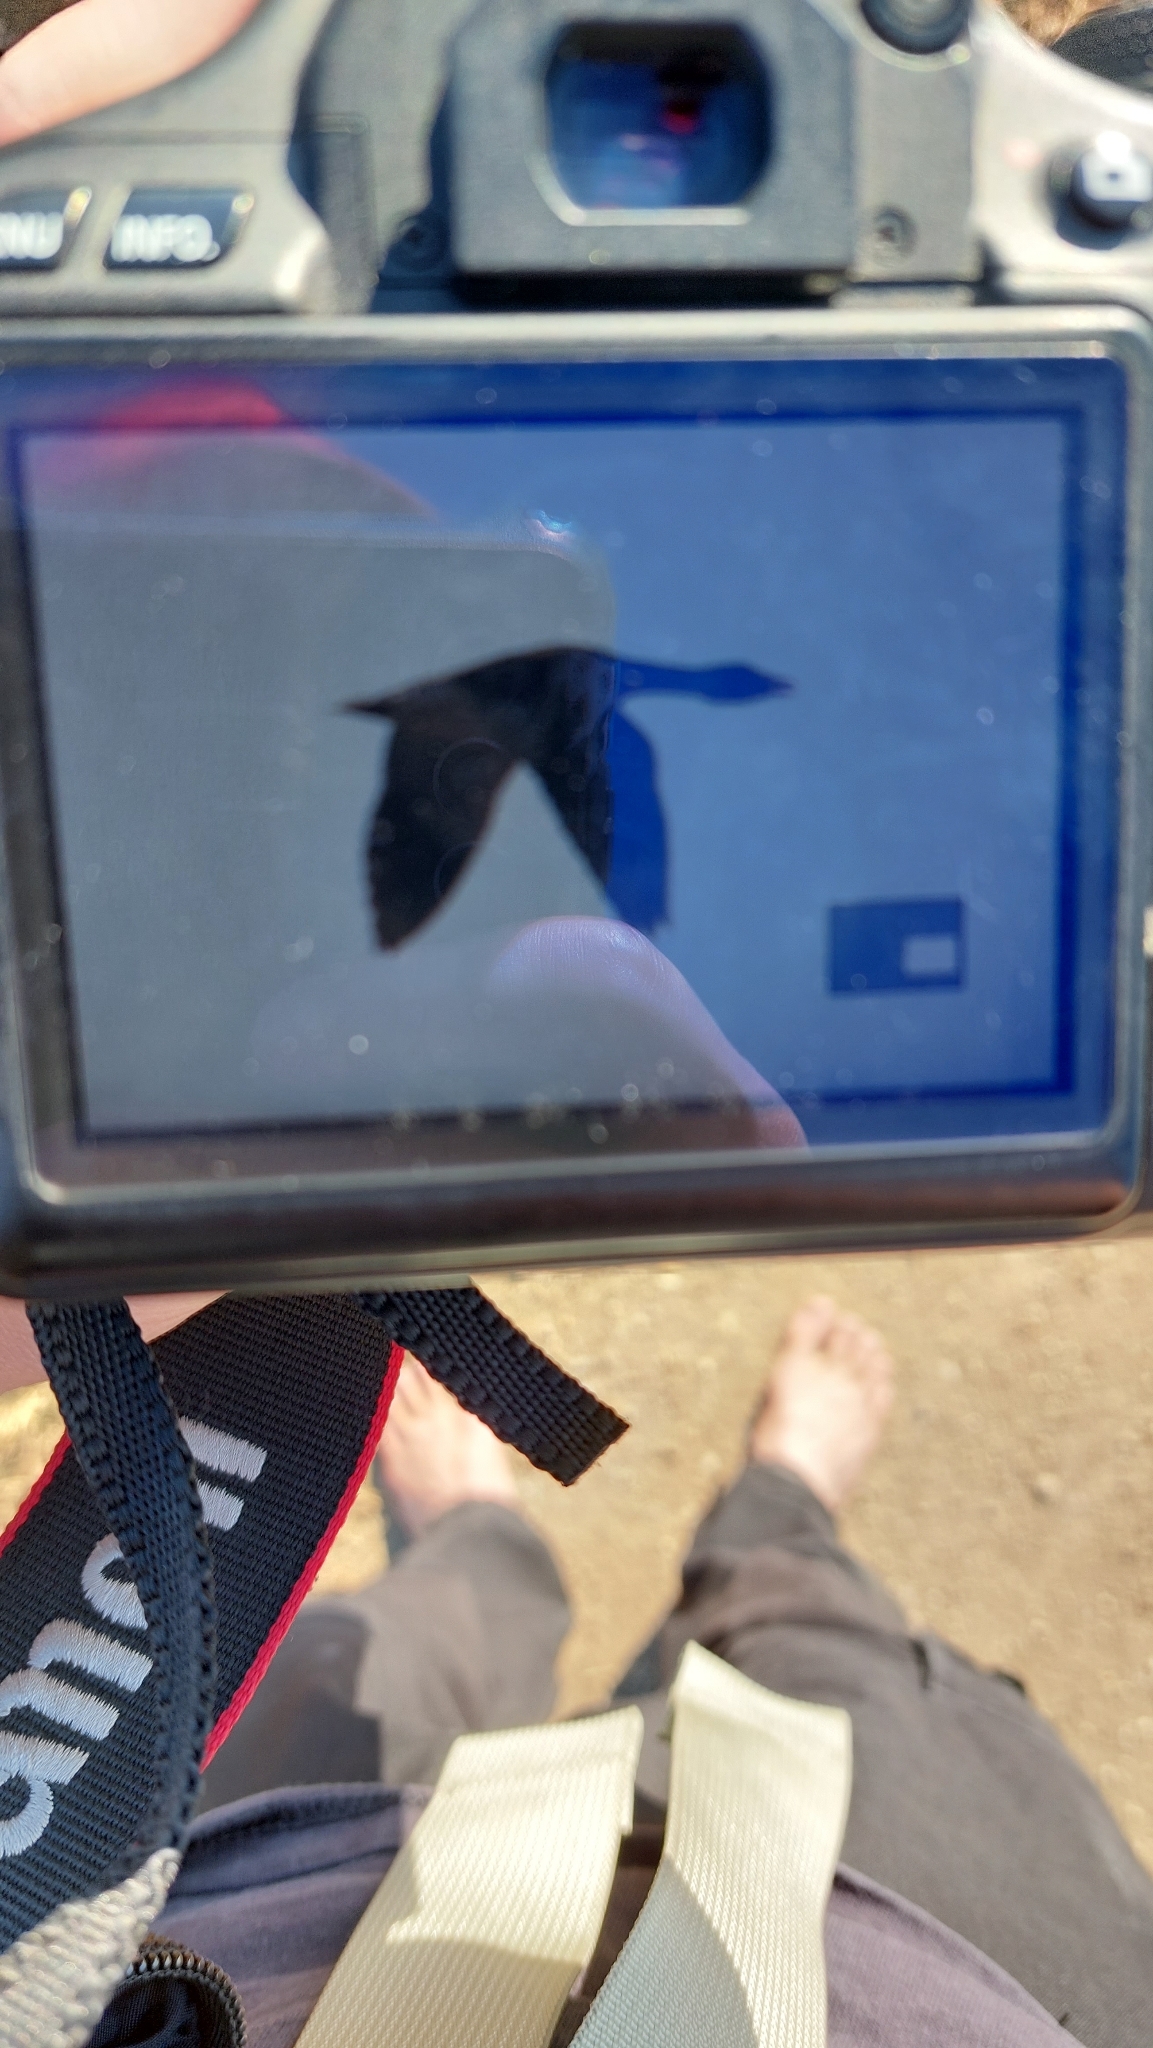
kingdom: Animalia
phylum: Chordata
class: Aves
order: Anseriformes
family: Anatidae
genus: Anser
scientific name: Anser albifrons
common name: Greater white-fronted goose
